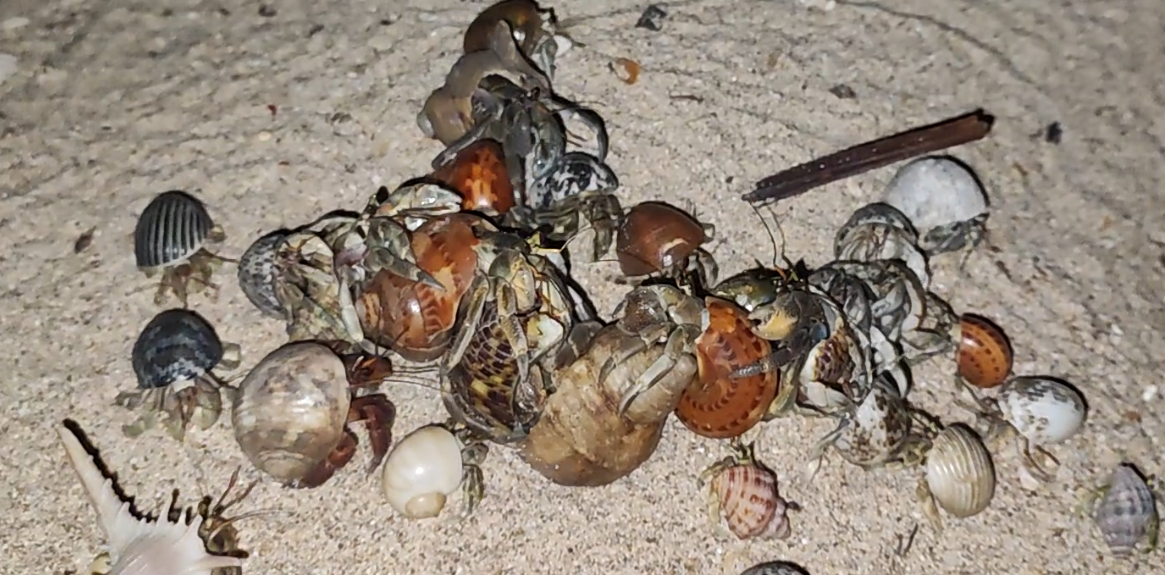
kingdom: Animalia
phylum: Arthropoda
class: Malacostraca
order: Decapoda
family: Coenobitidae
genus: Coenobita
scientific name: Coenobita rugosus
